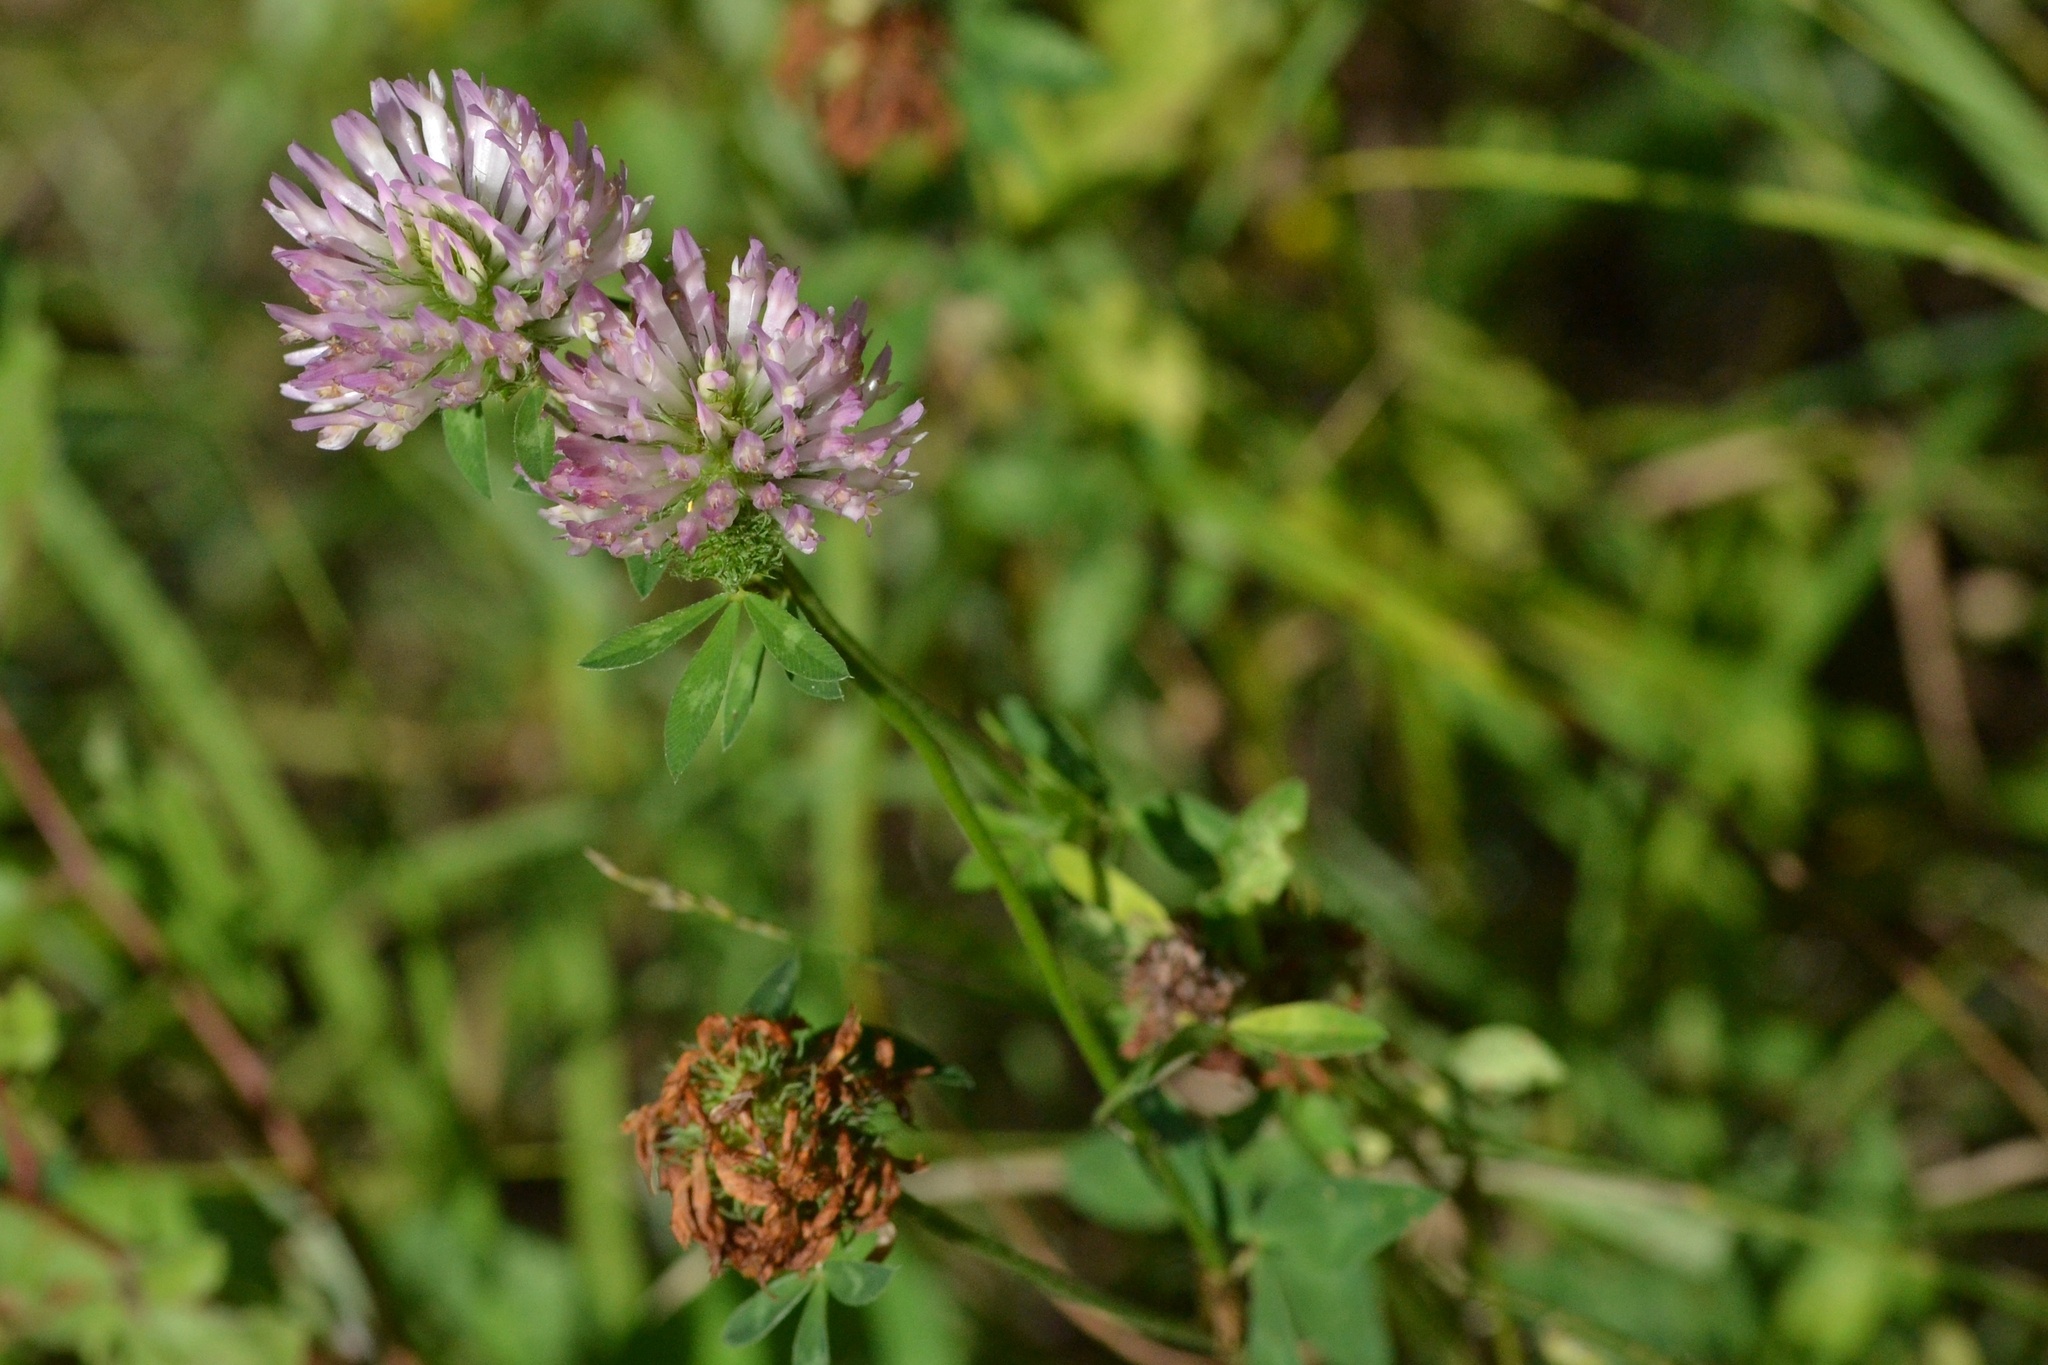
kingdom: Plantae
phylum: Tracheophyta
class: Magnoliopsida
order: Fabales
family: Fabaceae
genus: Trifolium
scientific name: Trifolium pratense
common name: Red clover
